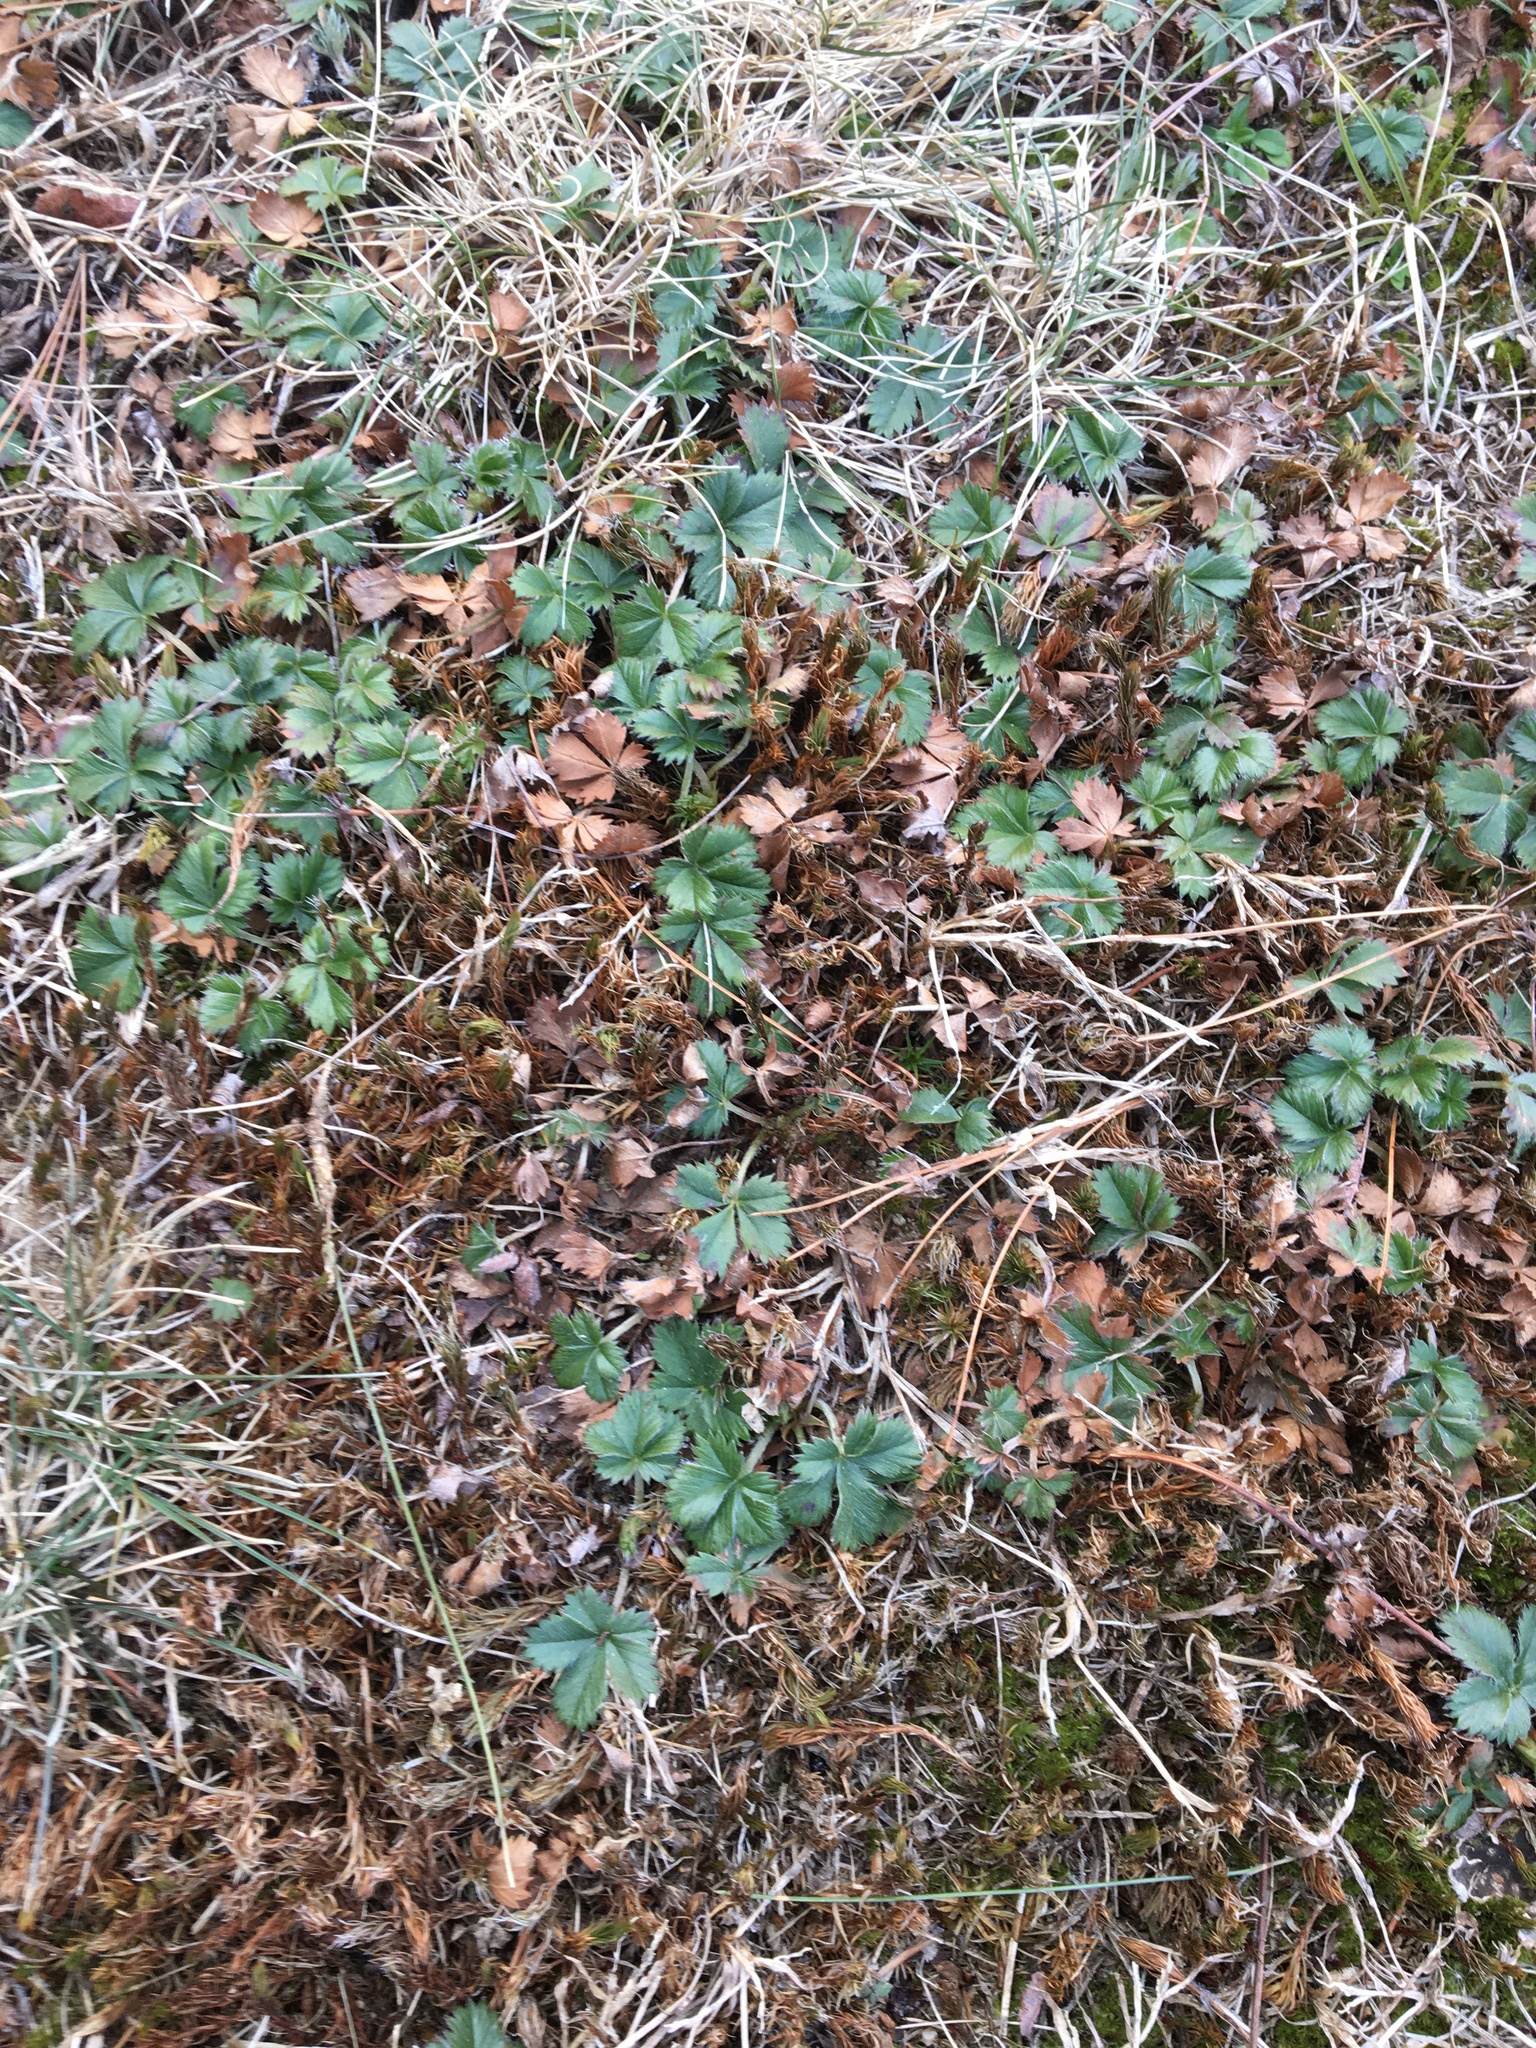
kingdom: Plantae
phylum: Tracheophyta
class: Magnoliopsida
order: Rosales
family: Rosaceae
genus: Potentilla
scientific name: Potentilla canadensis
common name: Canada cinquefoil
